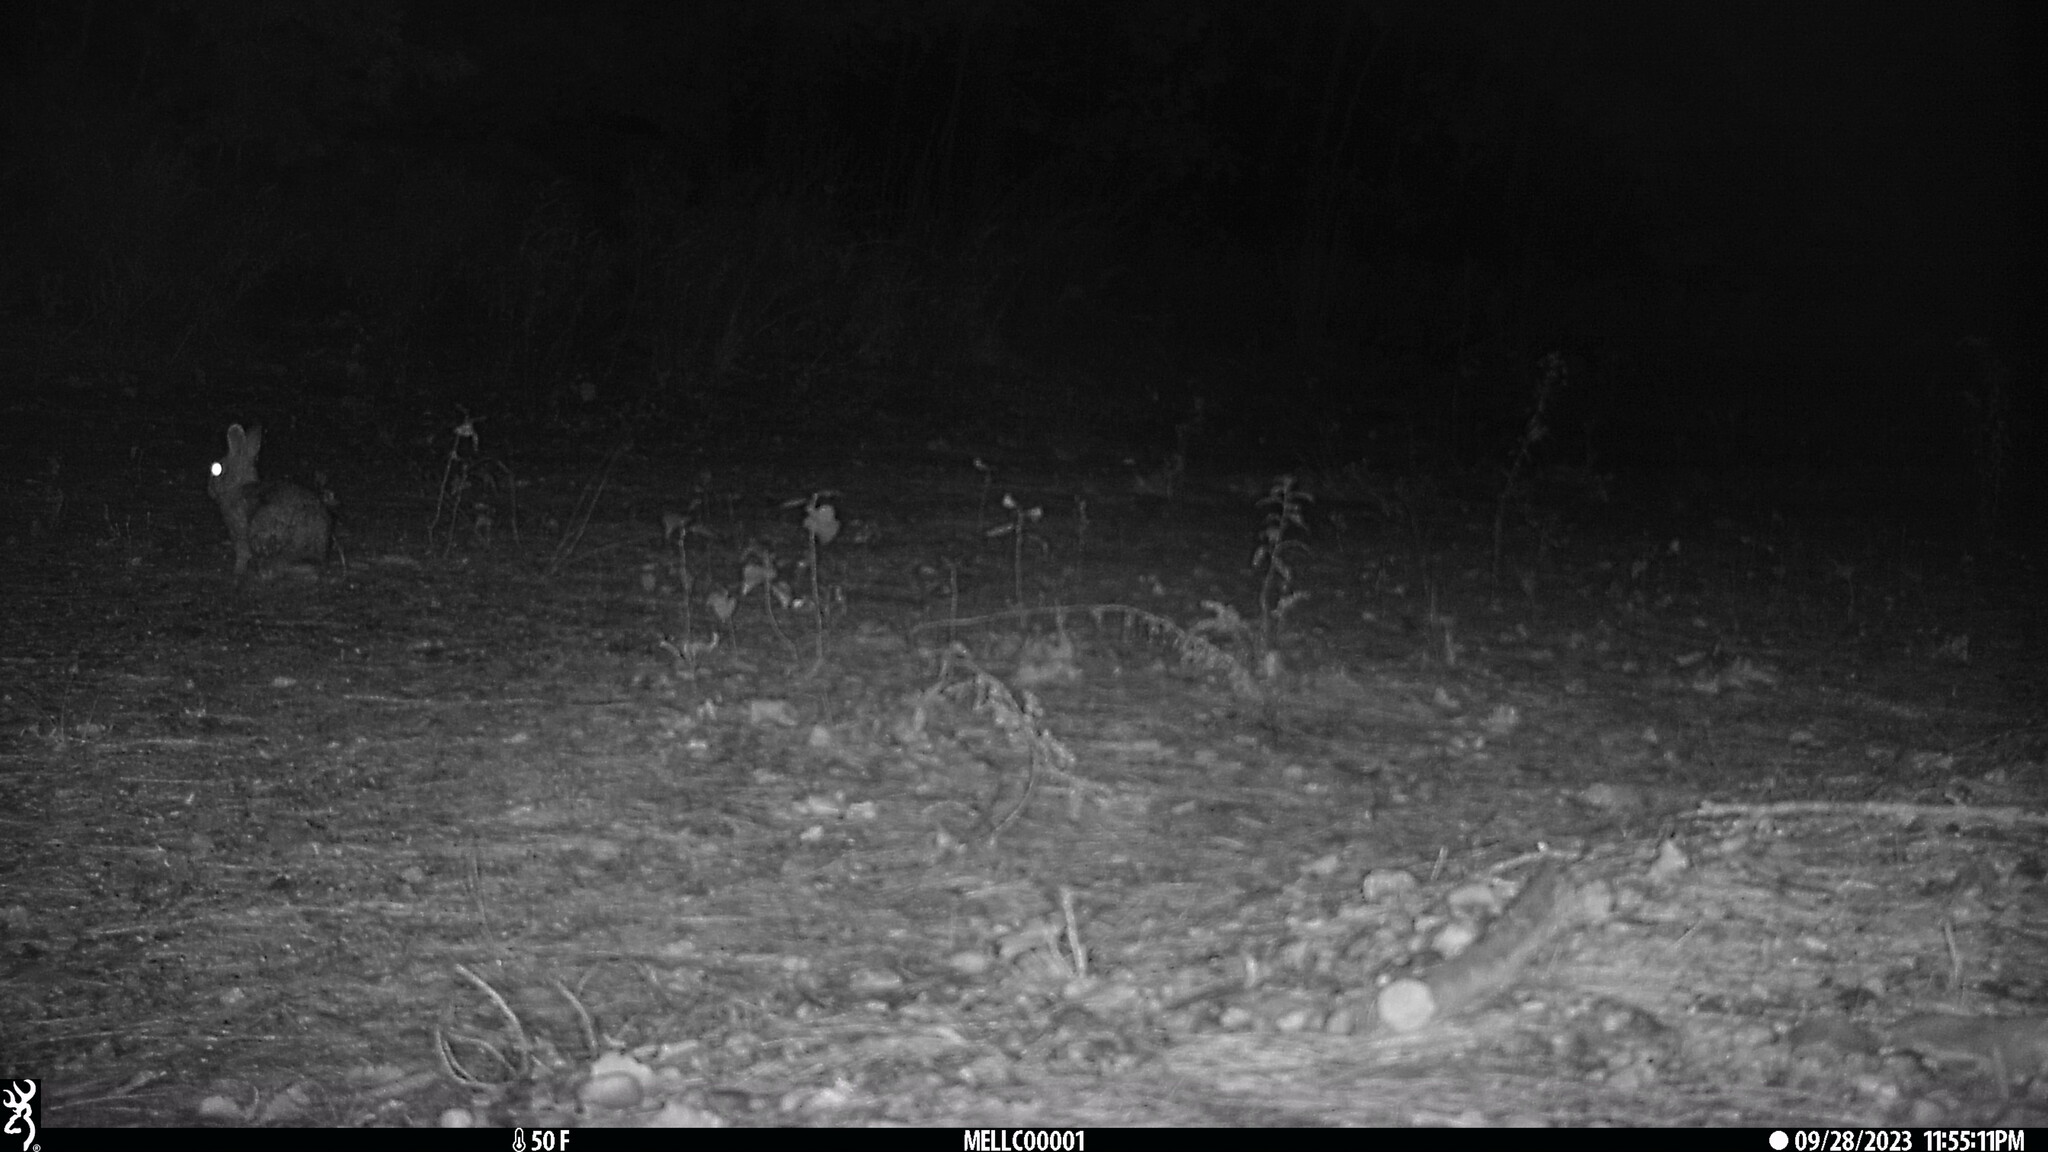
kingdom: Animalia
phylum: Chordata
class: Mammalia
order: Lagomorpha
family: Leporidae
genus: Sylvilagus
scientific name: Sylvilagus floridanus
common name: Eastern cottontail
